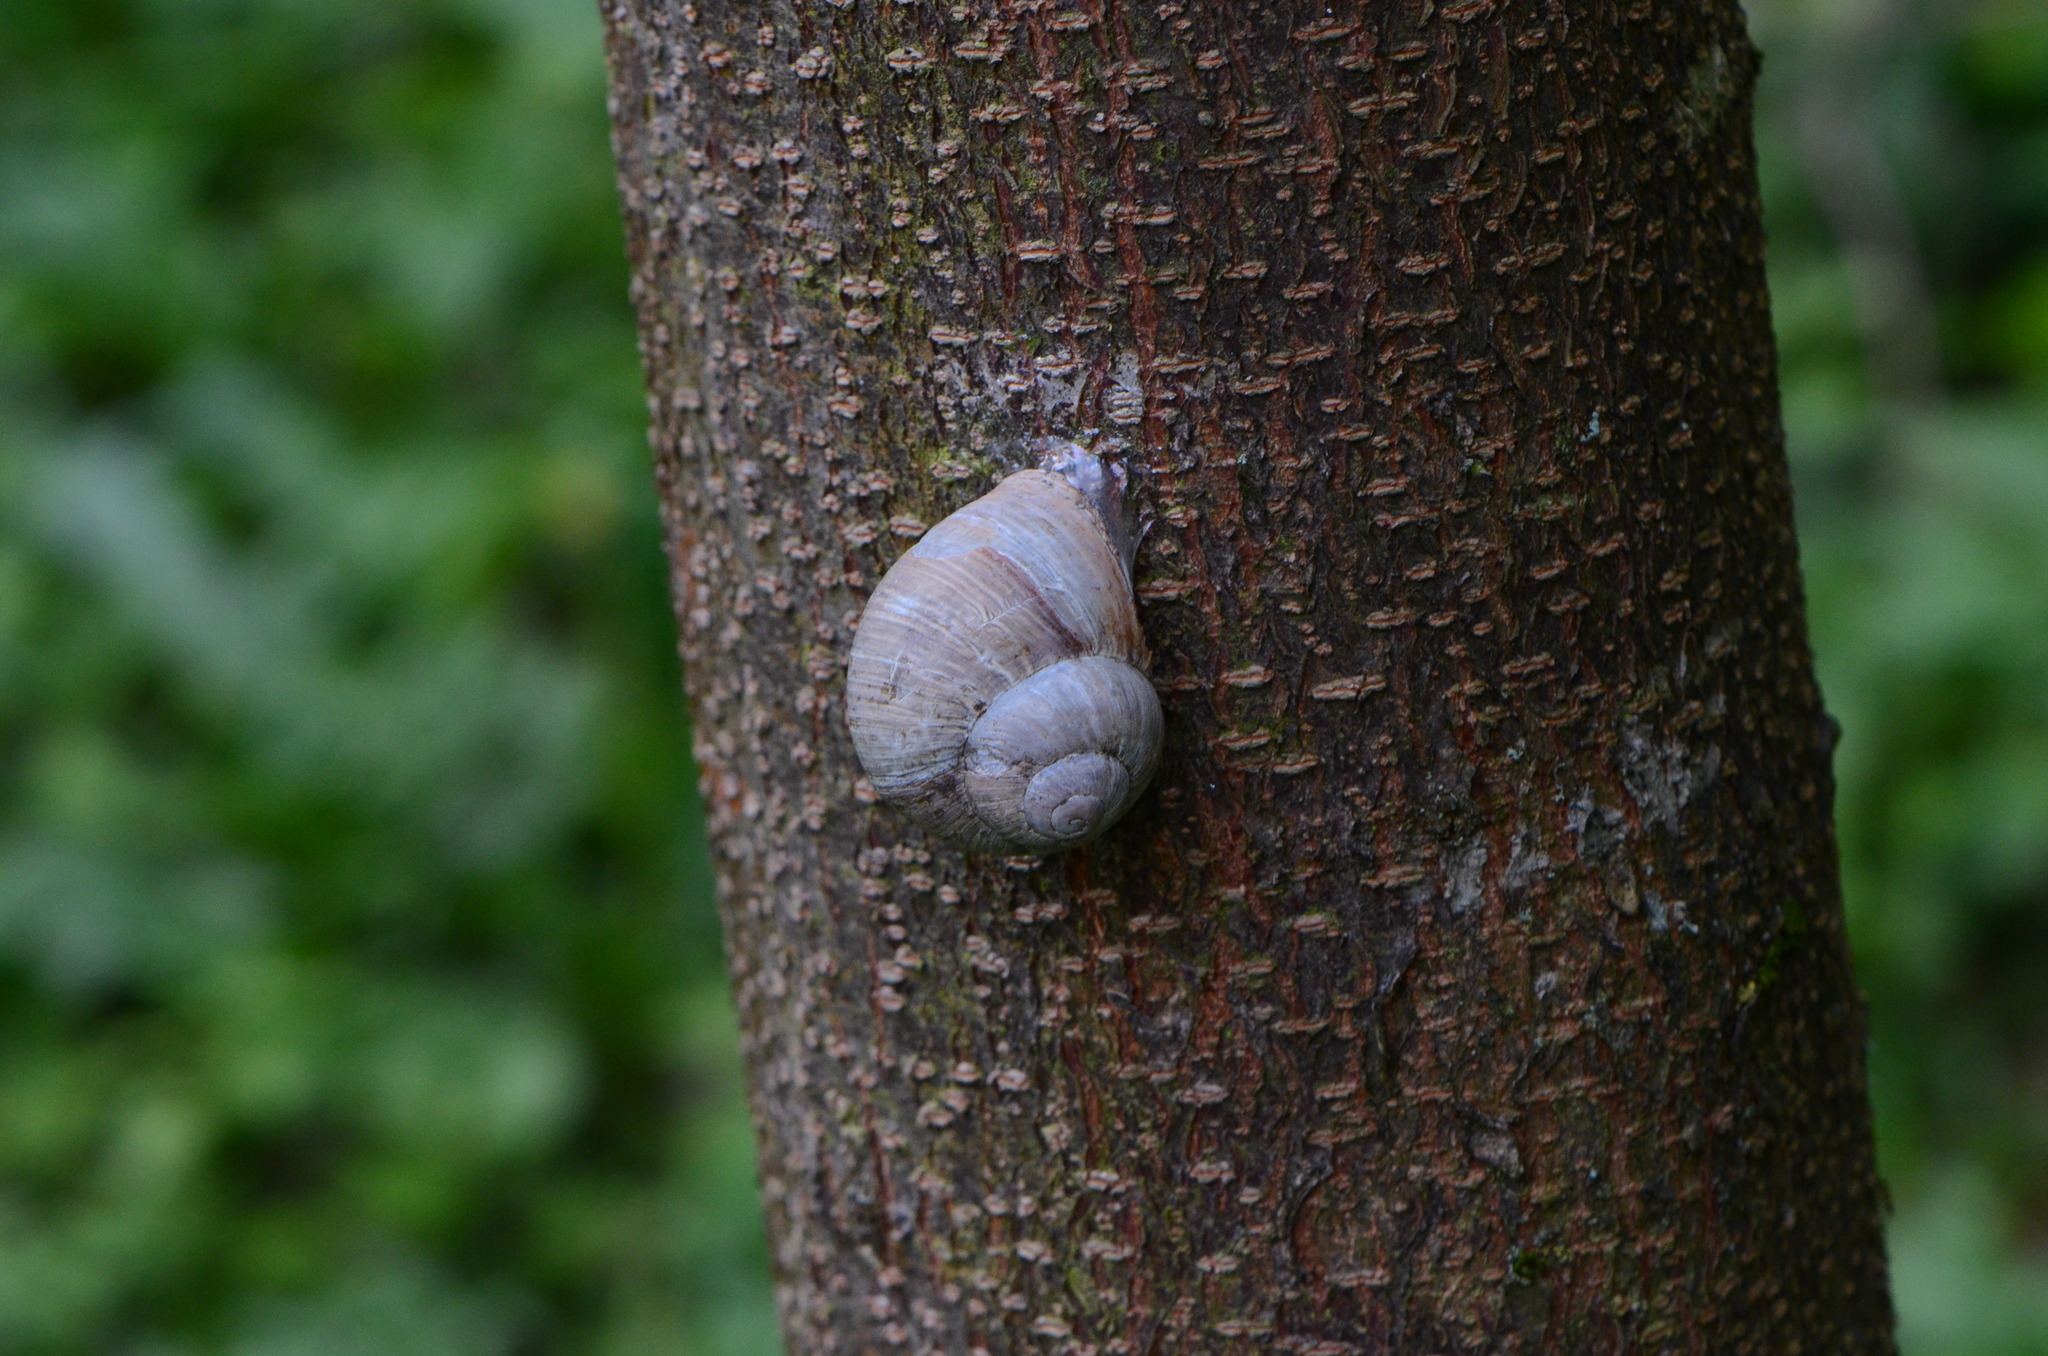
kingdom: Animalia
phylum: Mollusca
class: Gastropoda
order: Stylommatophora
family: Helicidae
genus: Helix
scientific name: Helix pomatia
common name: Roman snail
